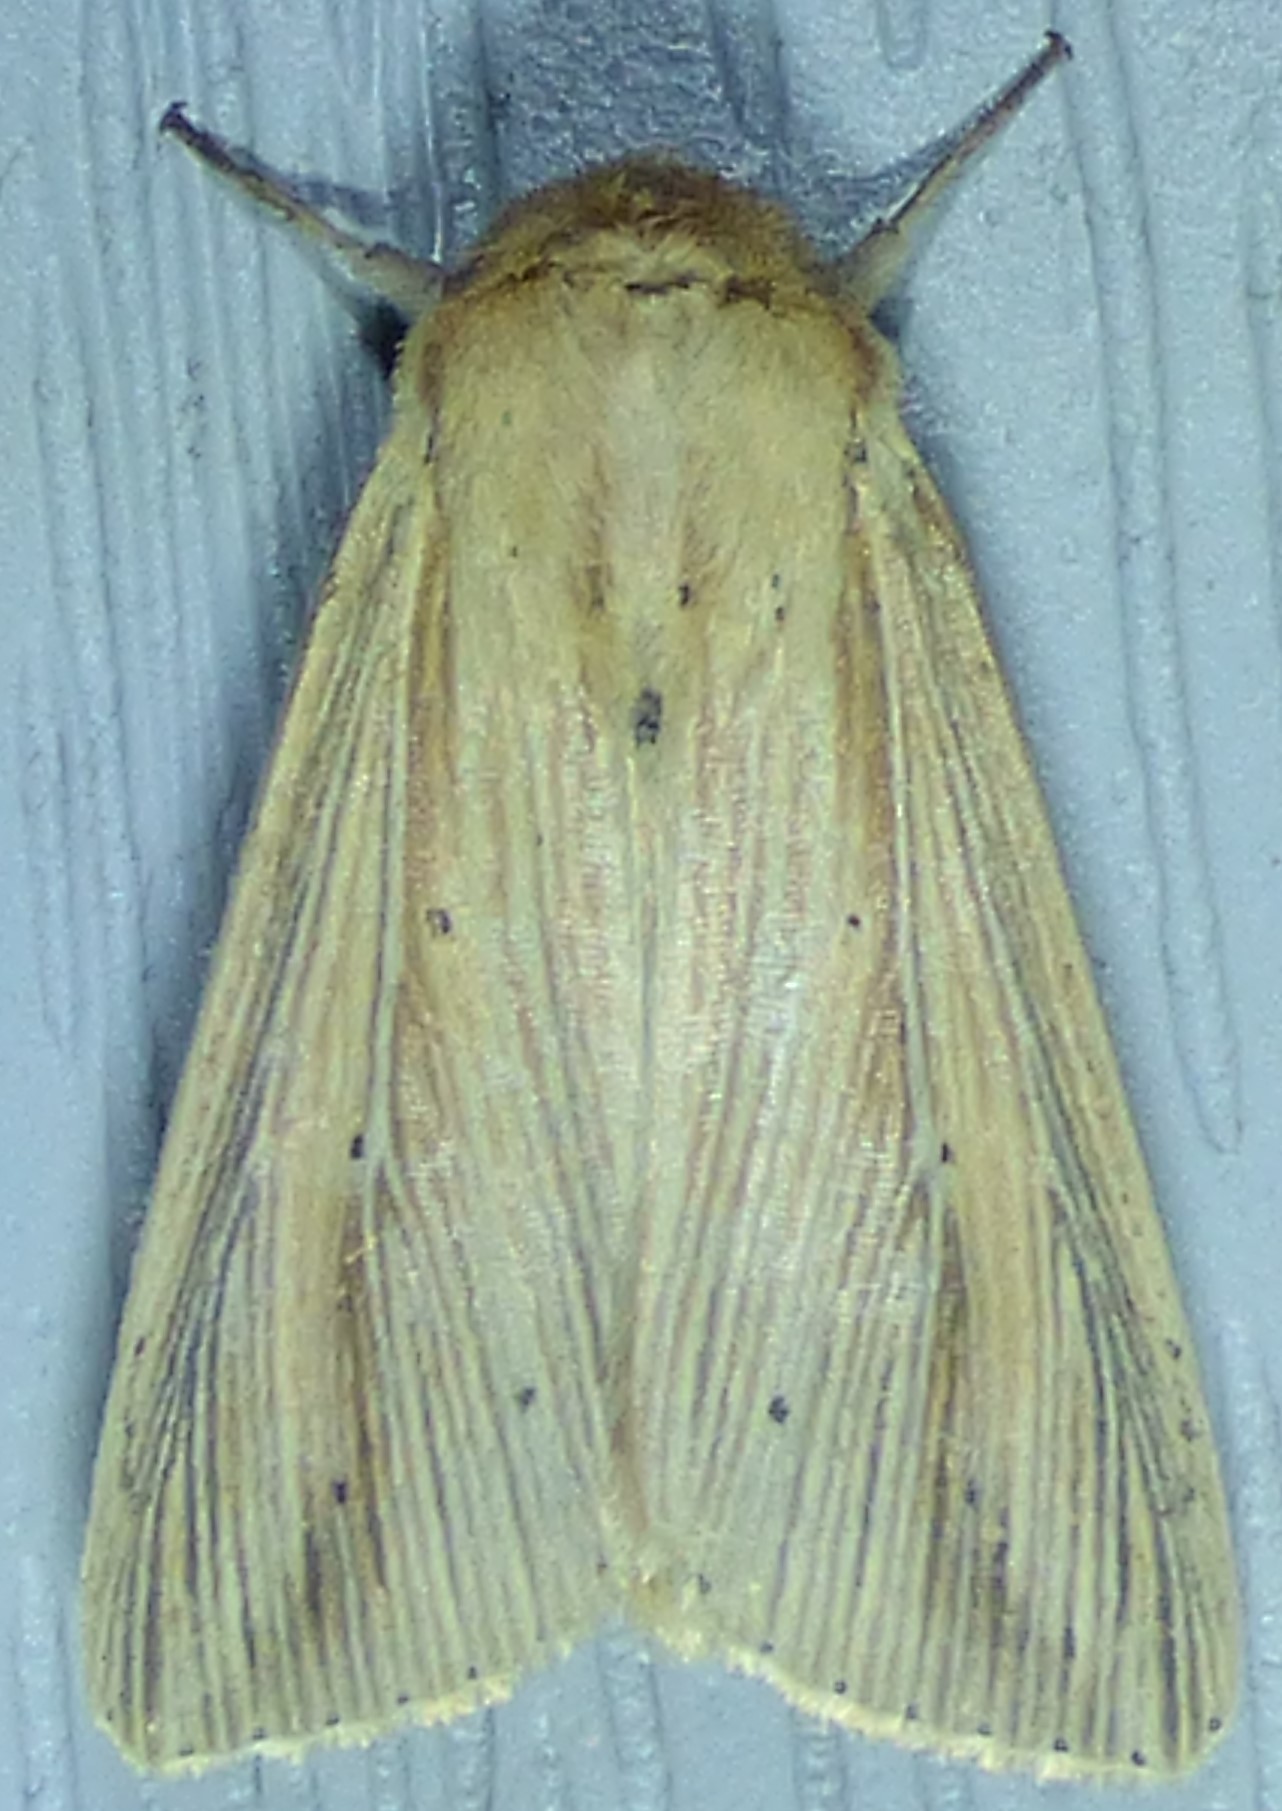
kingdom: Animalia
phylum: Arthropoda
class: Insecta
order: Lepidoptera
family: Noctuidae
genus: Leucania
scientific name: Leucania adjuta
